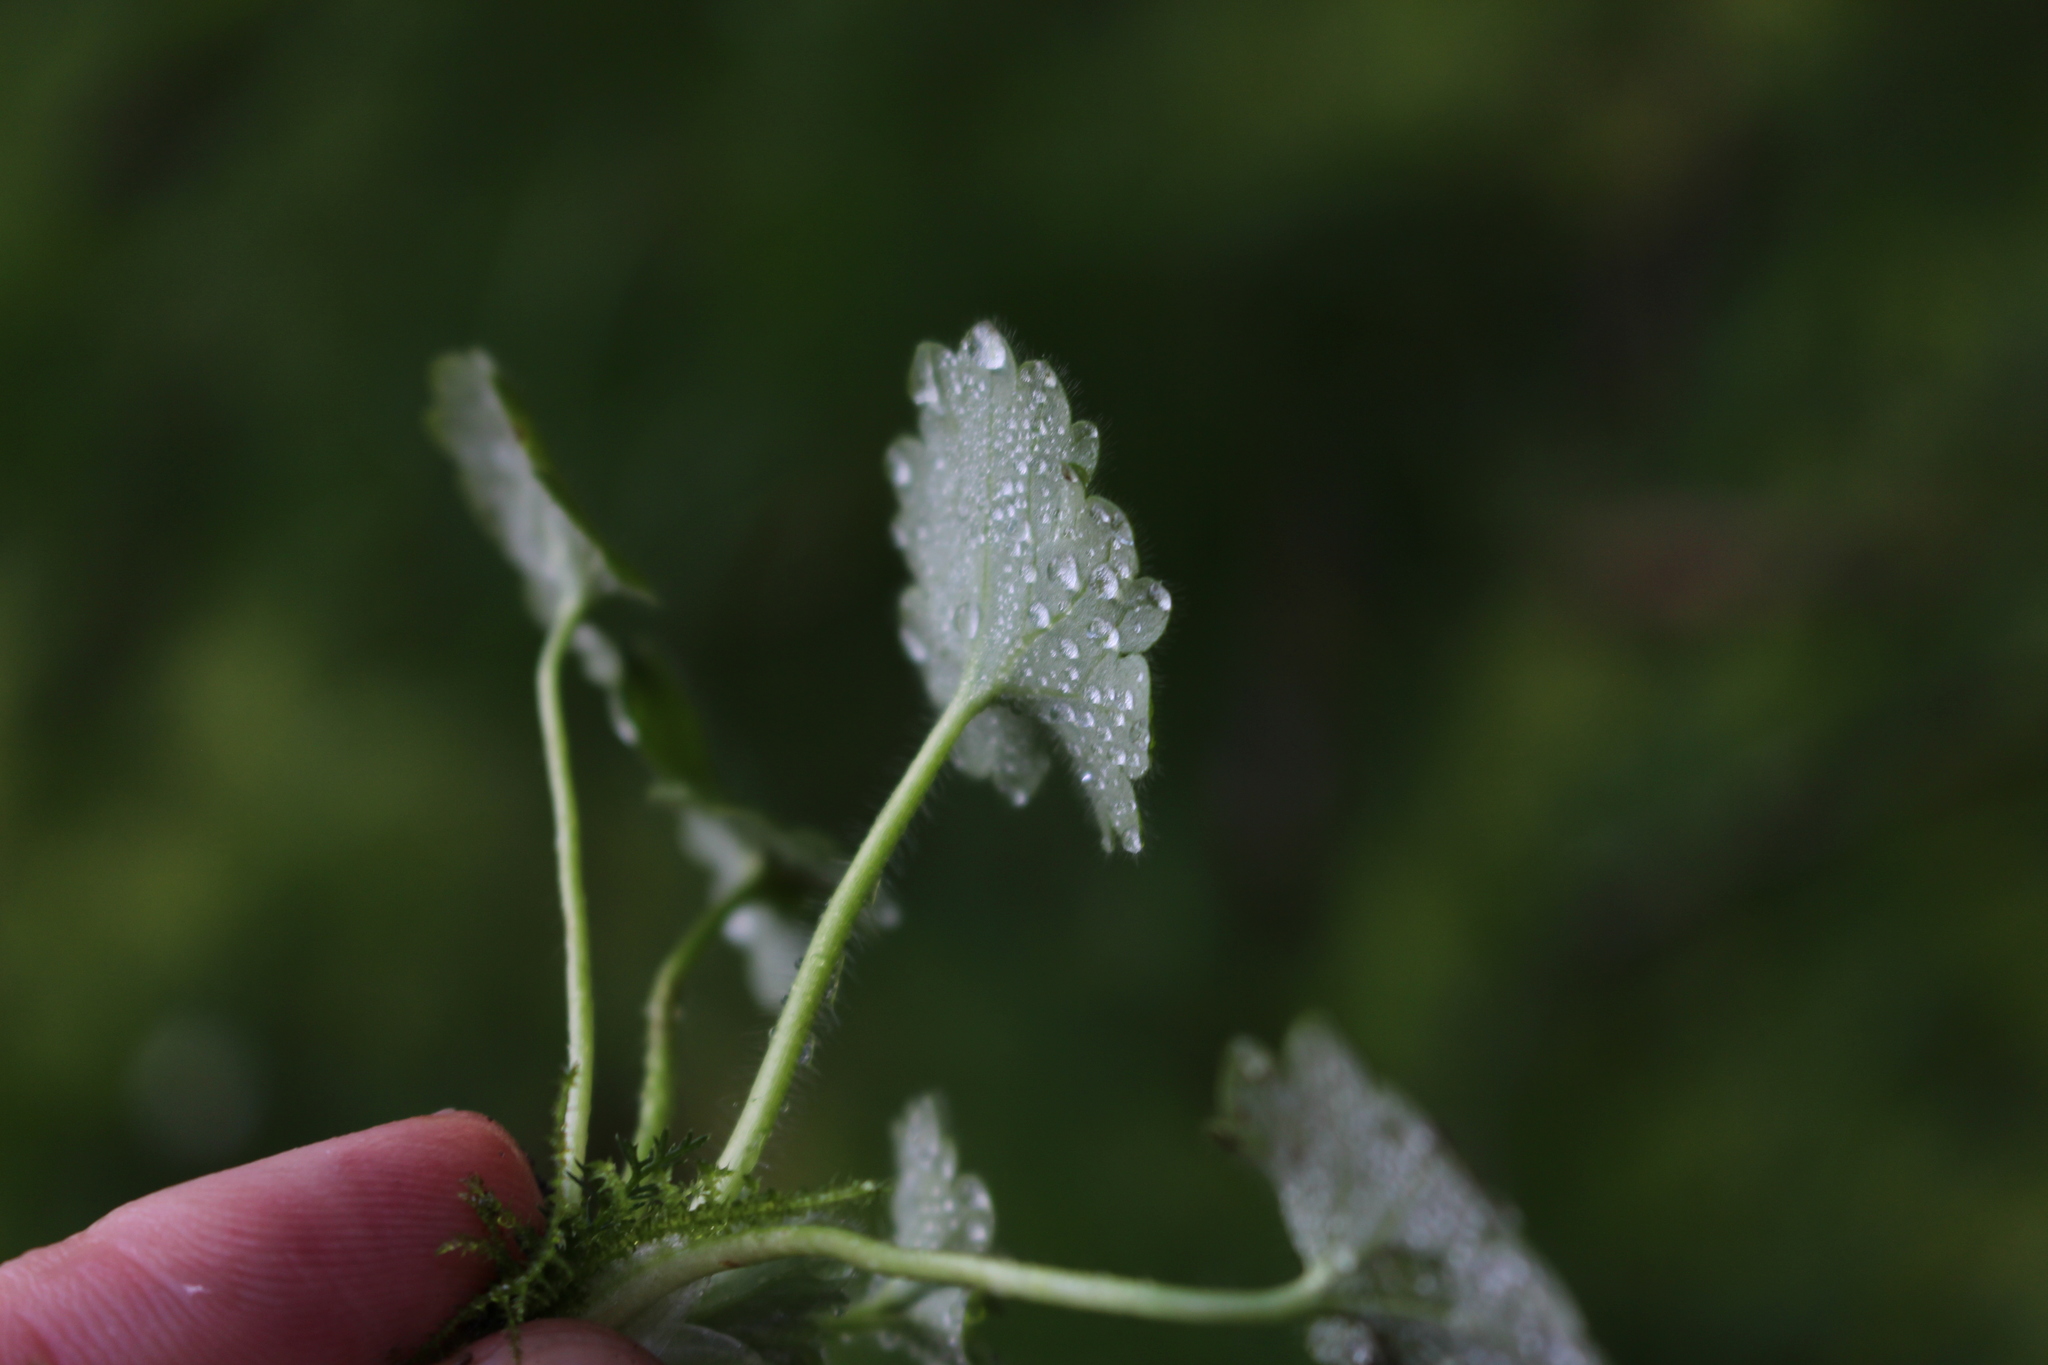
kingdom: Plantae
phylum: Tracheophyta
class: Magnoliopsida
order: Ranunculales
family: Ranunculaceae
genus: Ranunculus
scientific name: Ranunculus parviflorus
